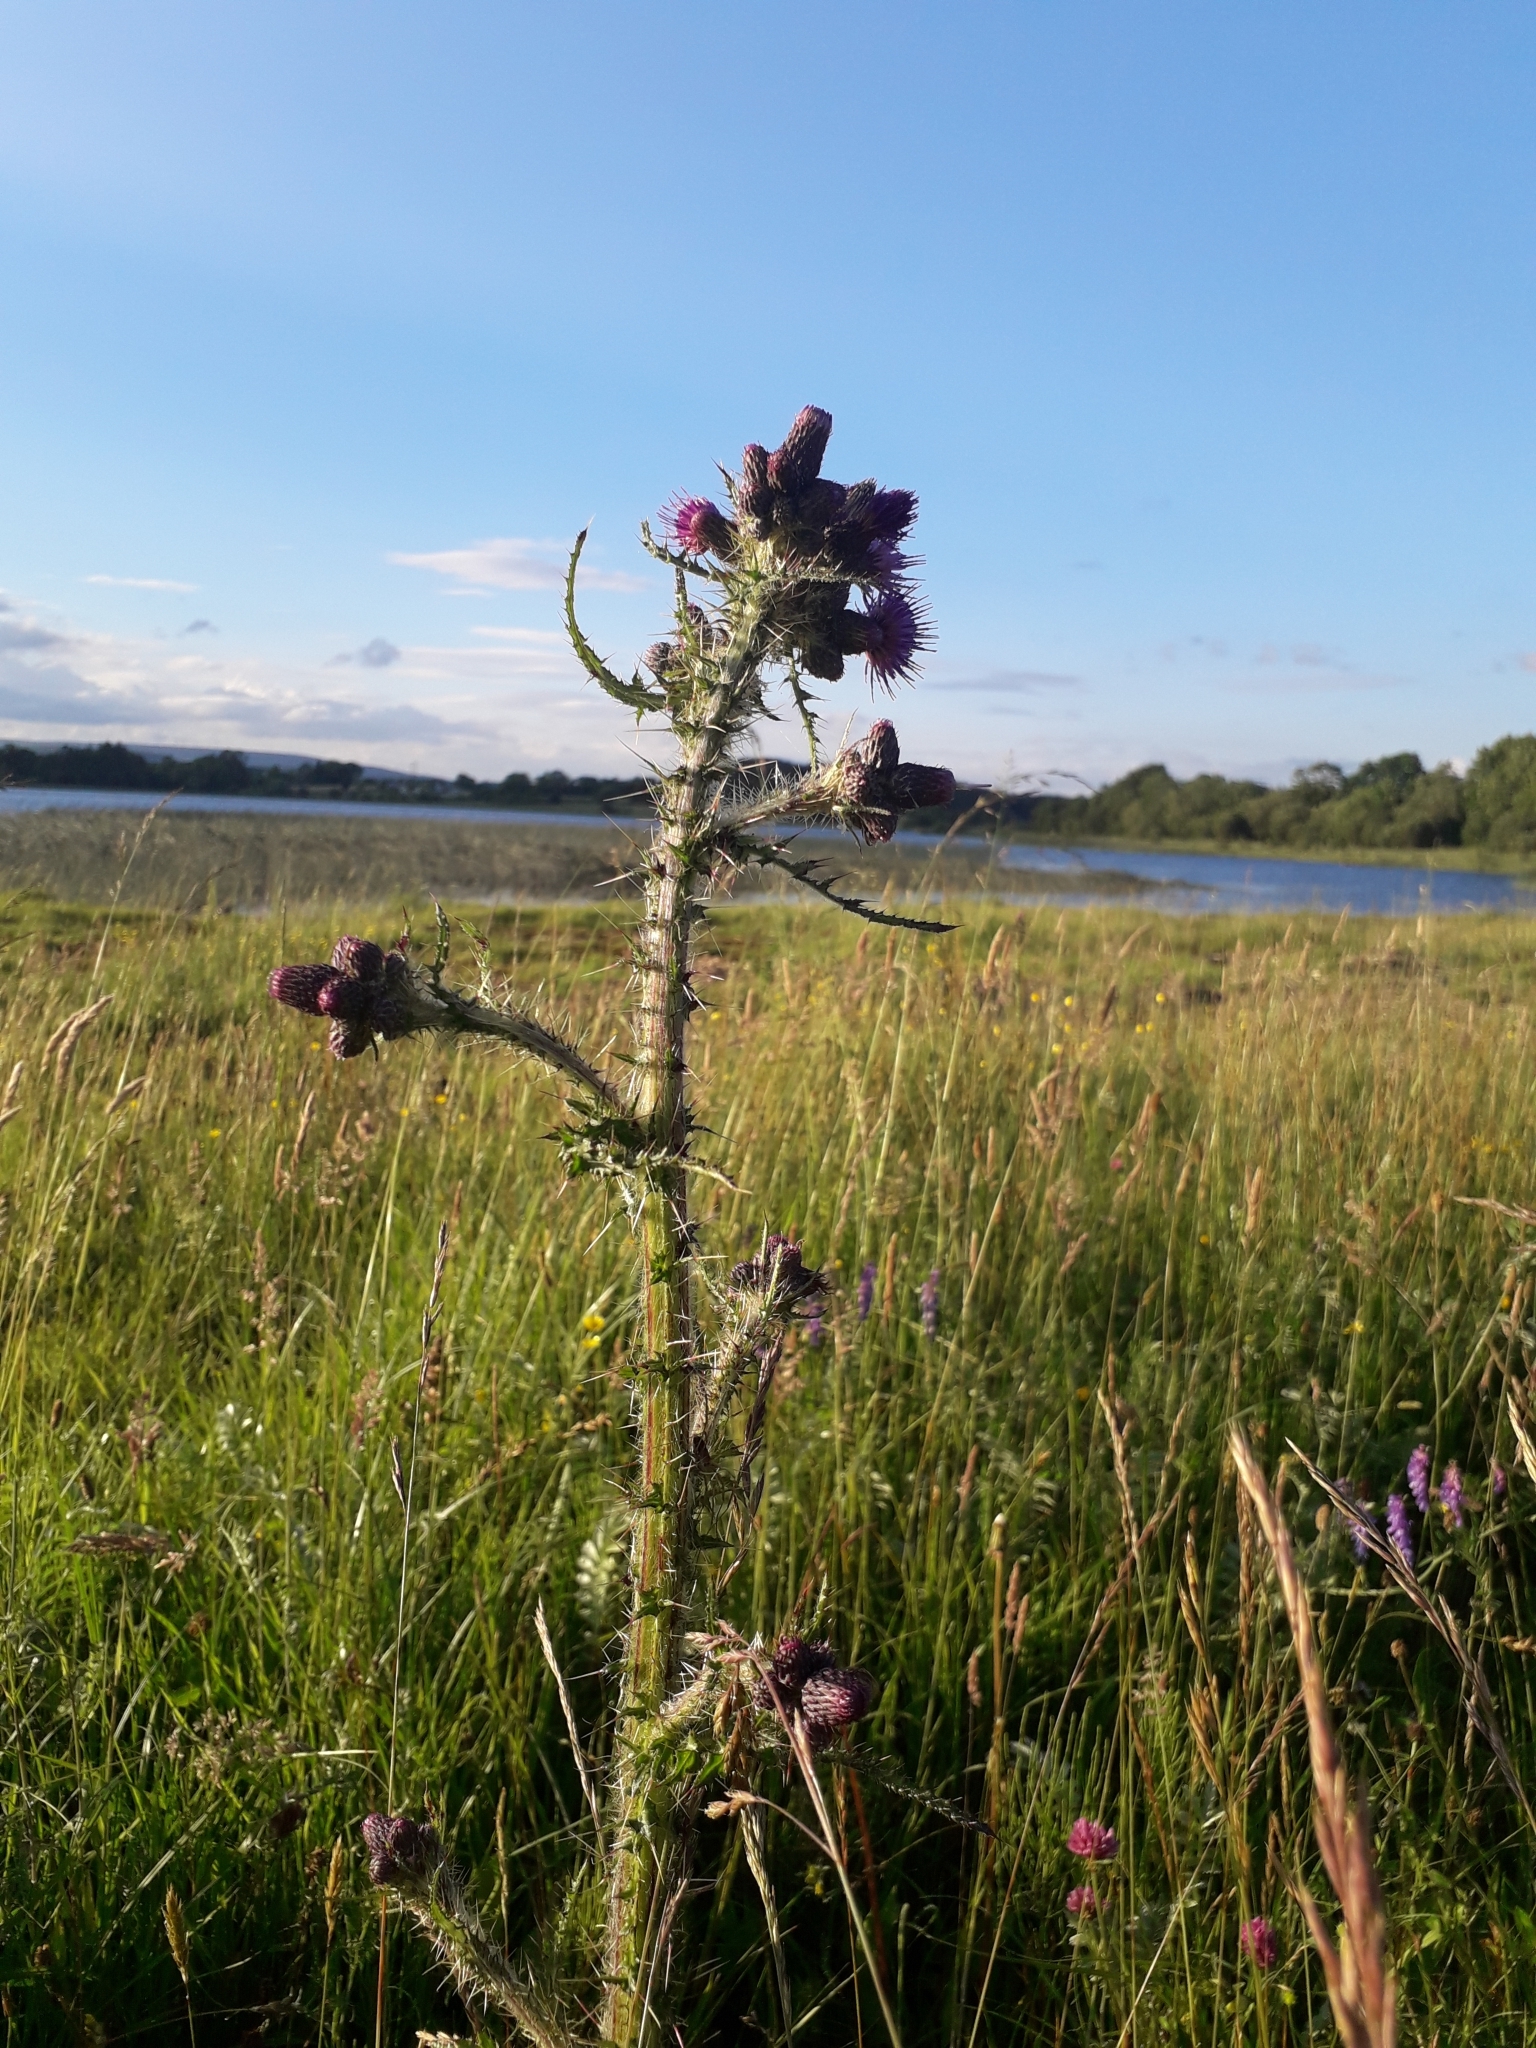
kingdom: Plantae
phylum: Tracheophyta
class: Magnoliopsida
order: Asterales
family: Asteraceae
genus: Cirsium
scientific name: Cirsium palustre
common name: Marsh thistle
